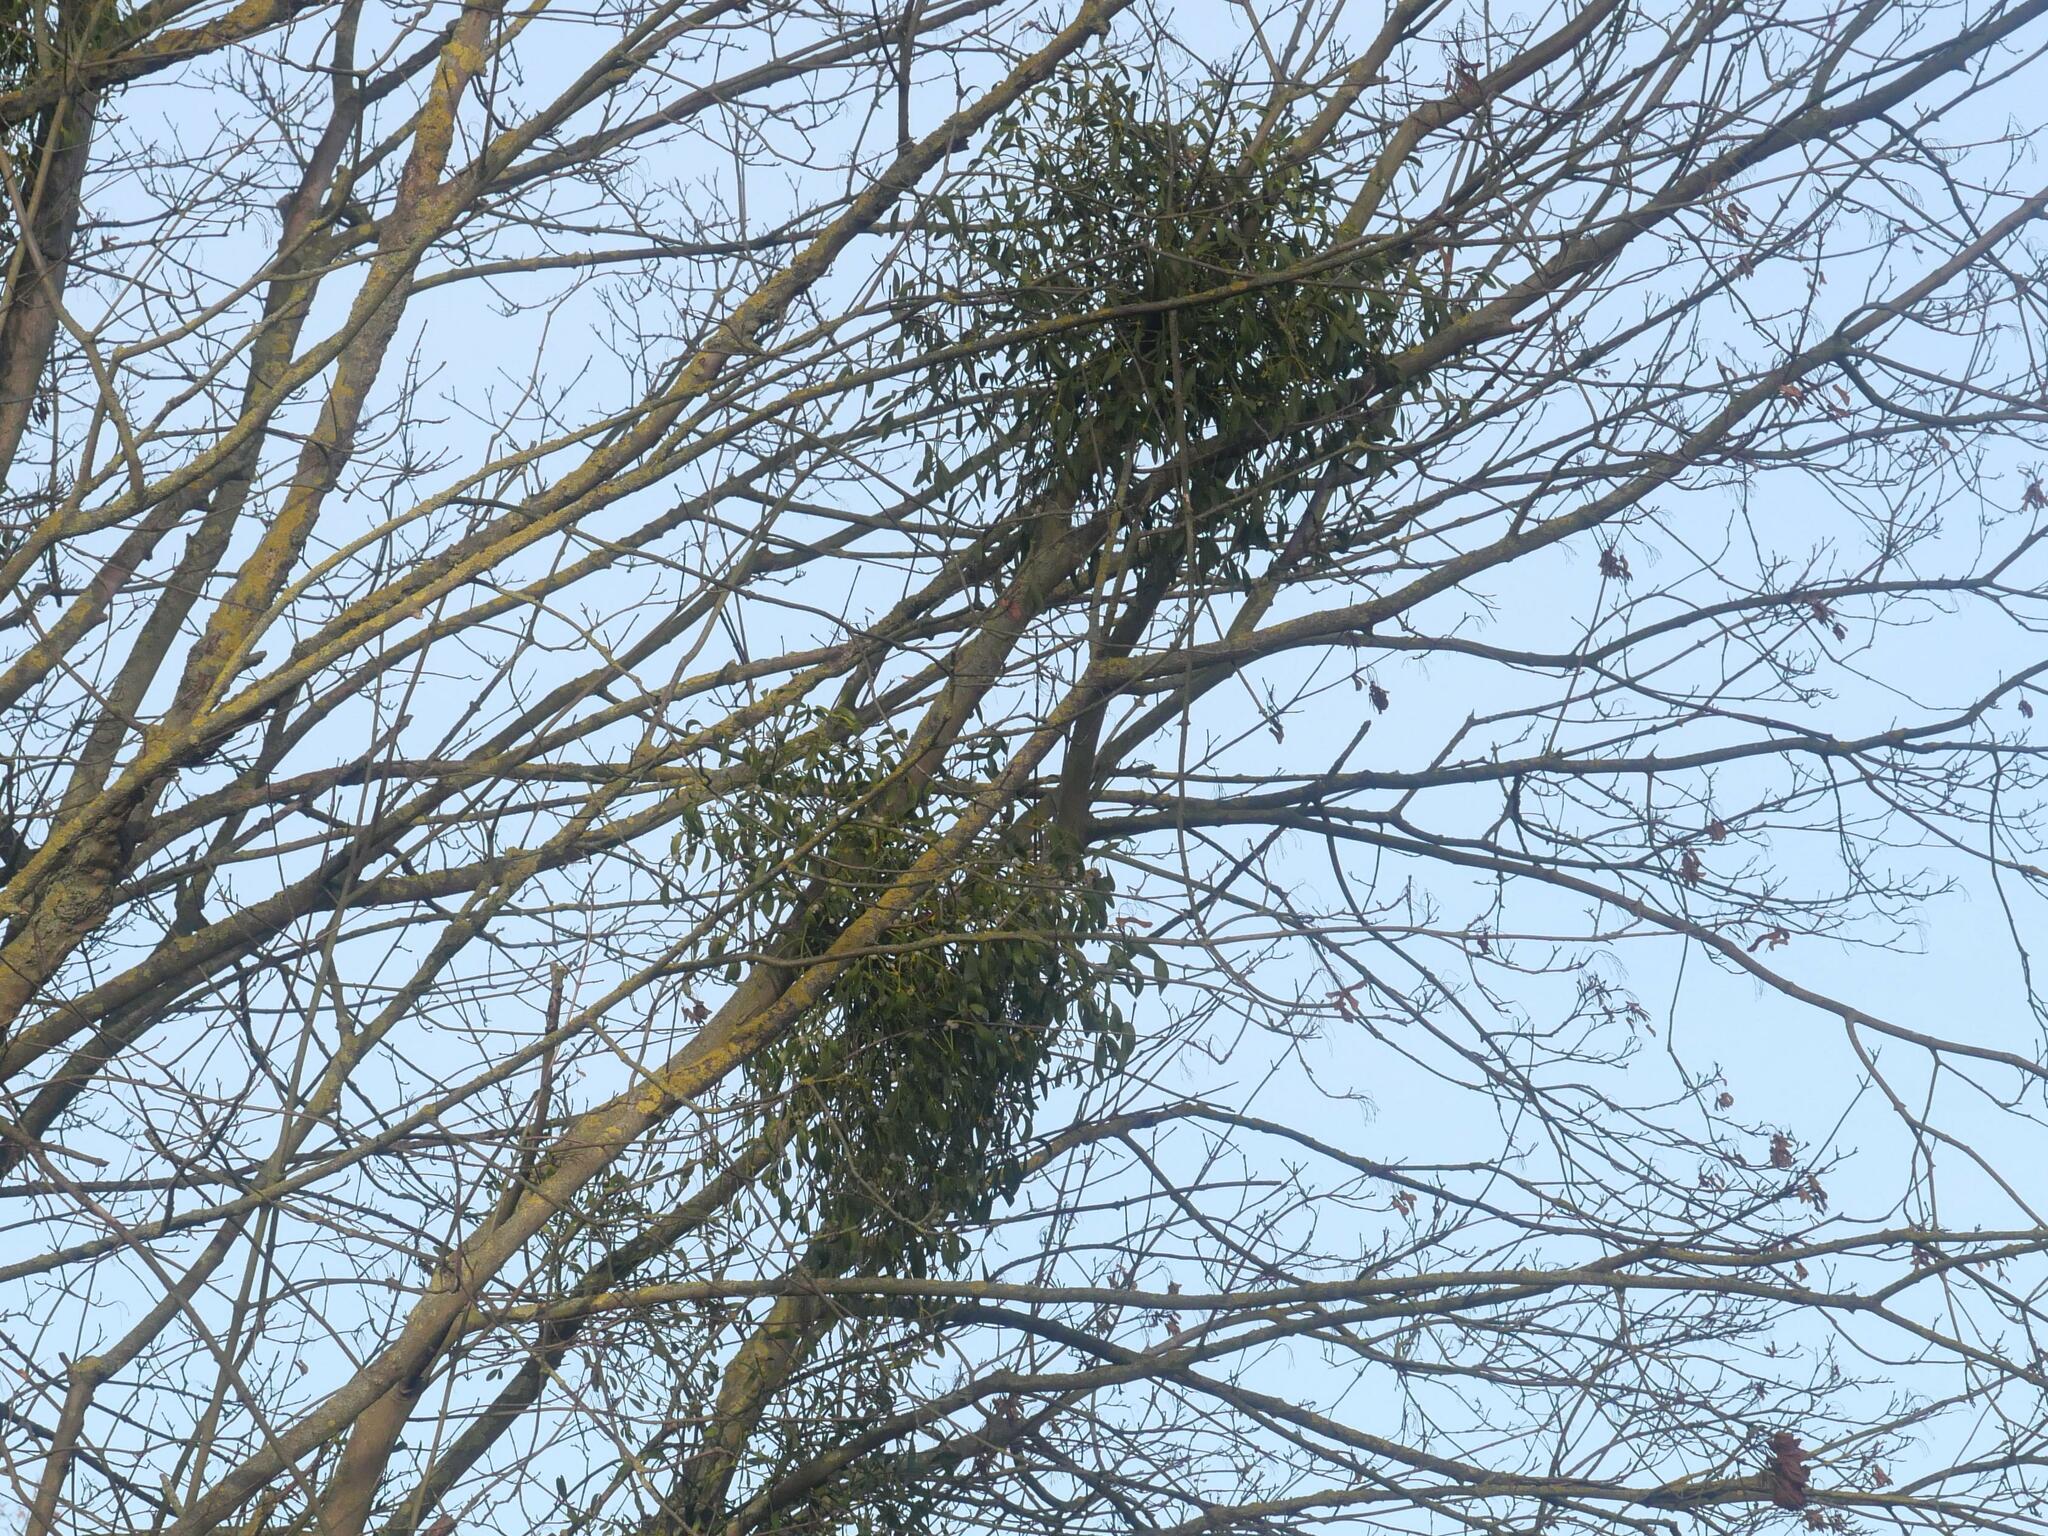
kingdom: Plantae
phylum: Tracheophyta
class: Magnoliopsida
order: Santalales
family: Viscaceae
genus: Viscum
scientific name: Viscum album
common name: Mistletoe
